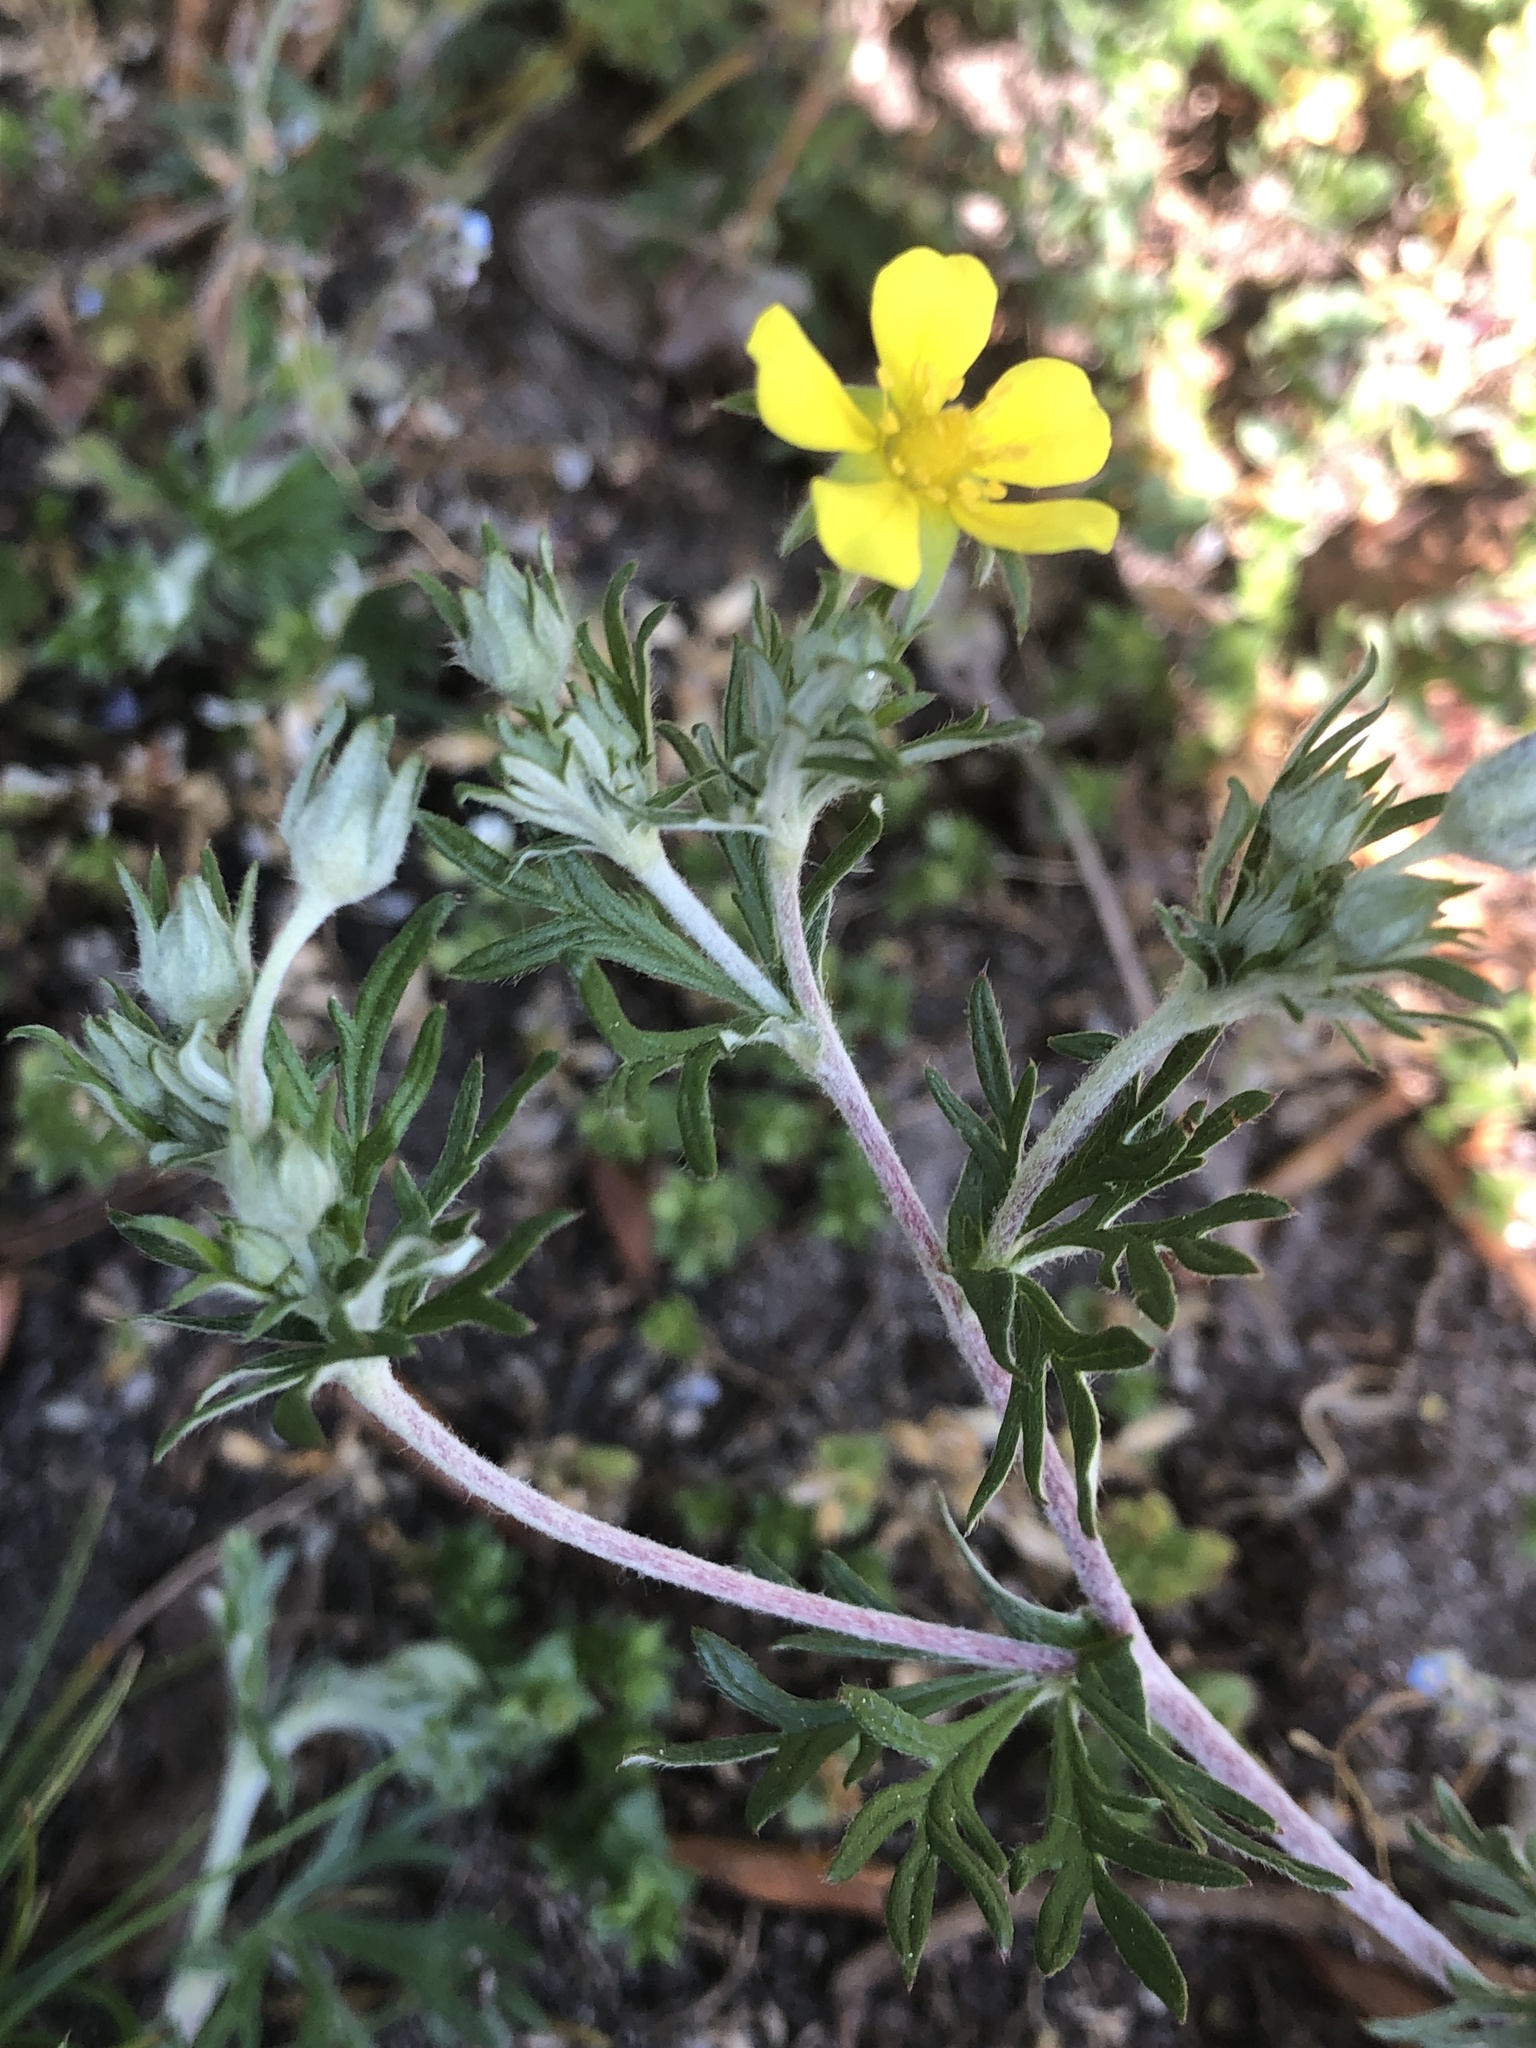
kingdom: Plantae
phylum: Tracheophyta
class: Magnoliopsida
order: Rosales
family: Rosaceae
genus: Potentilla
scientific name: Potentilla argentea
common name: Hoary cinquefoil
